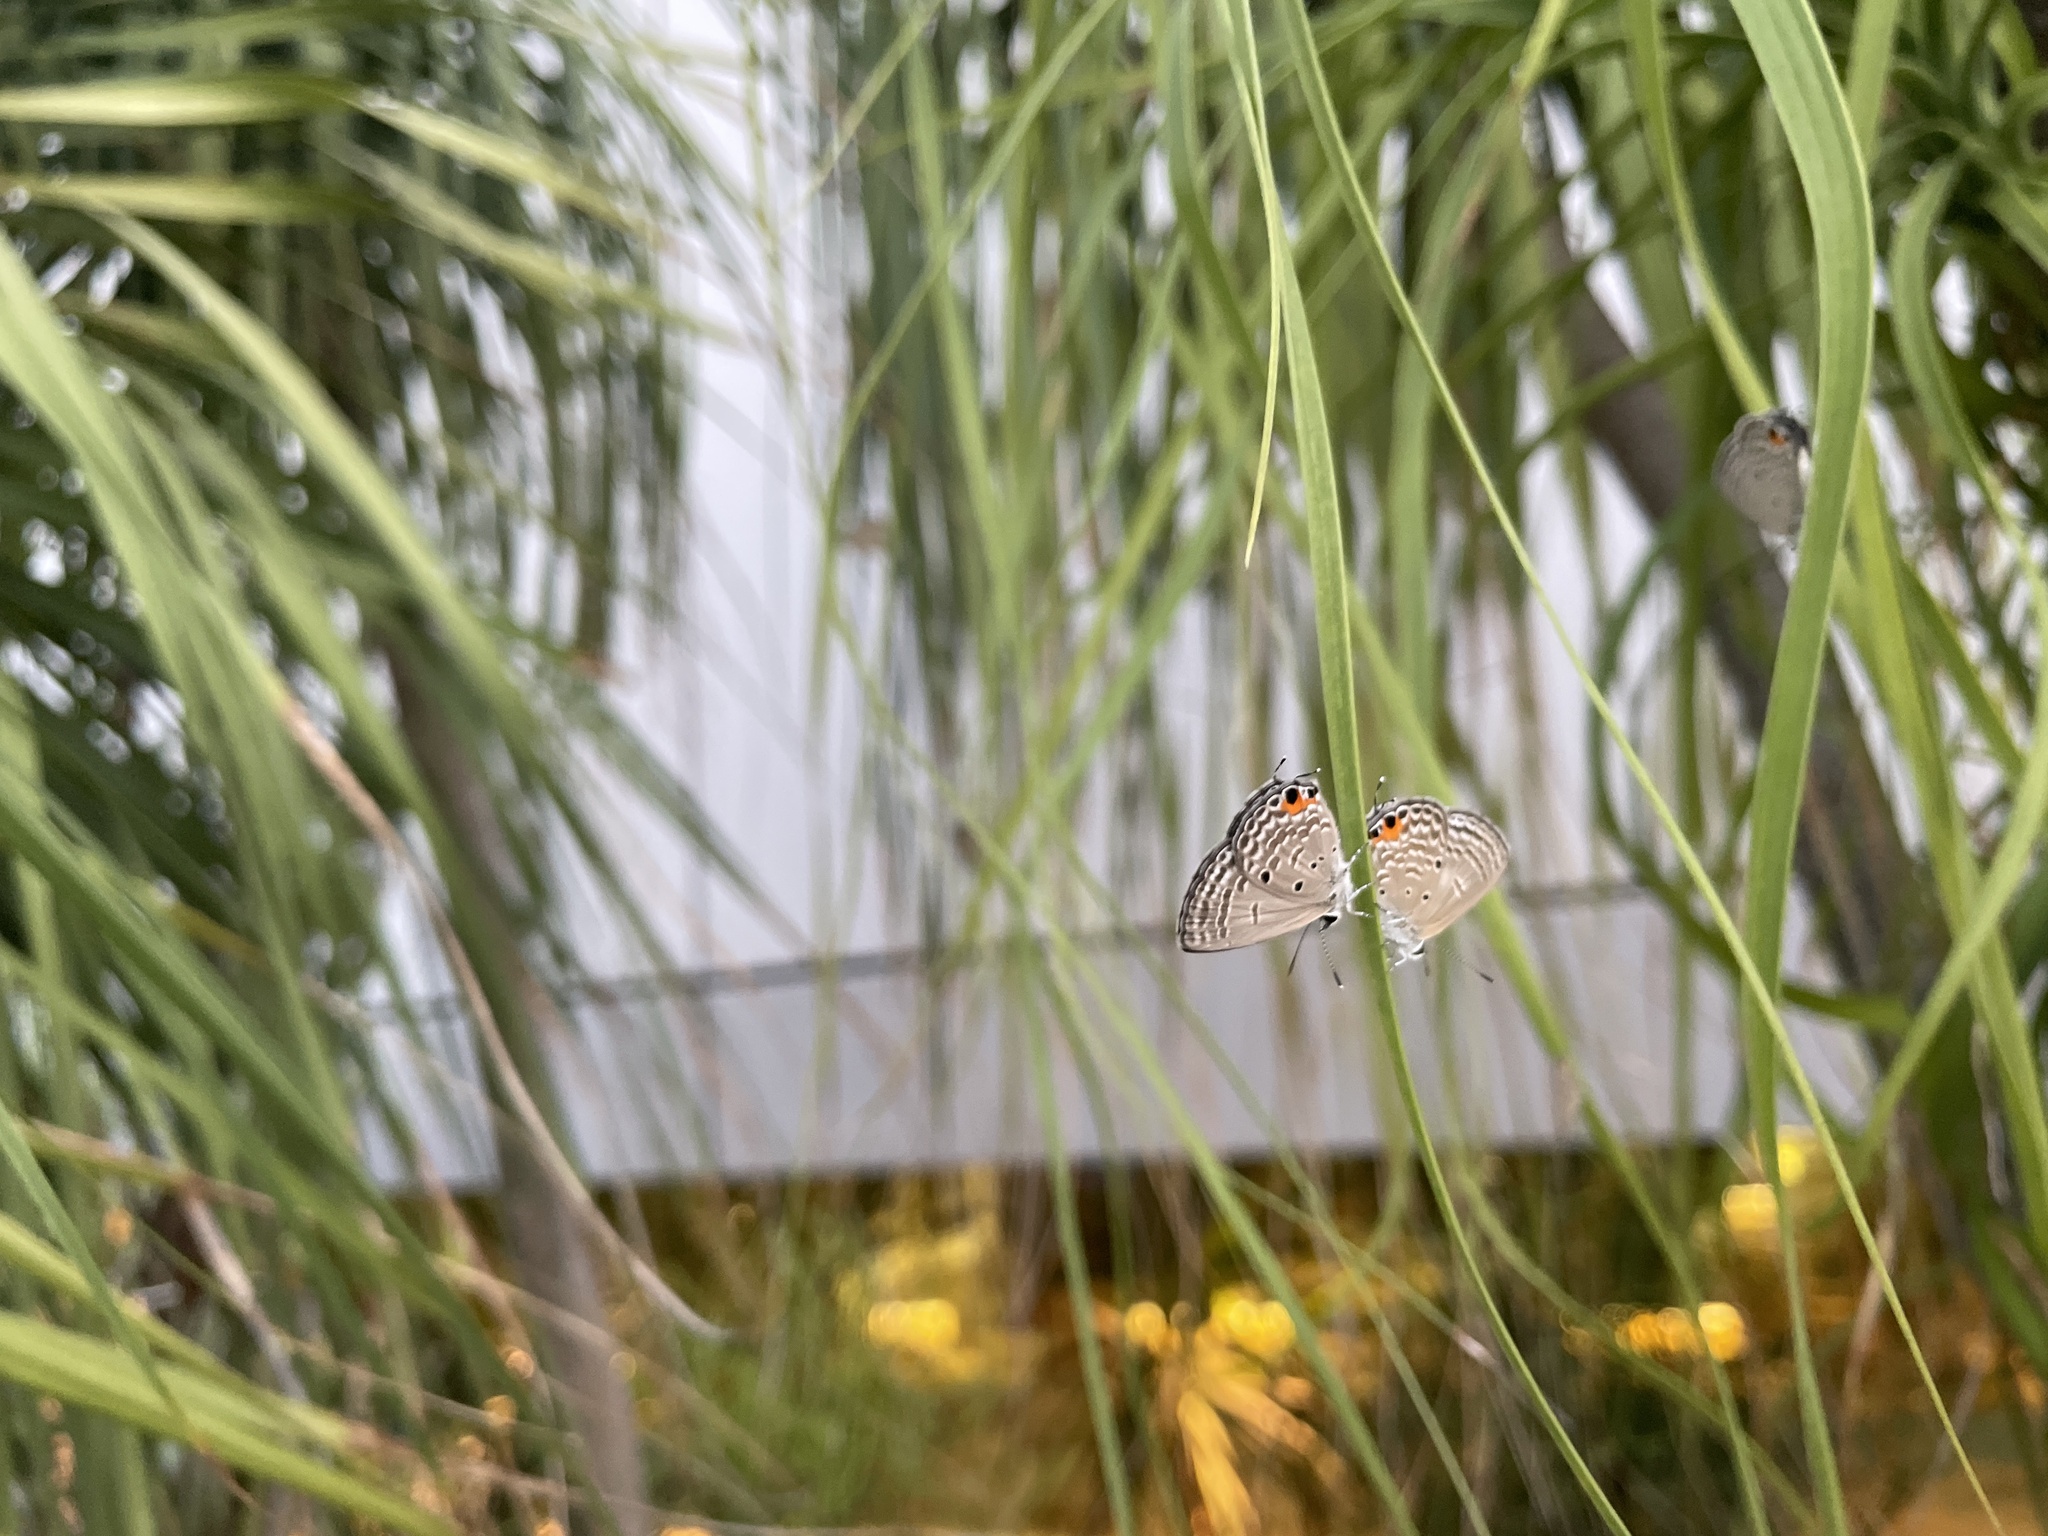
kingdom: Animalia
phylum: Arthropoda
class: Insecta
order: Lepidoptera
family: Lycaenidae
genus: Luthrodes
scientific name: Luthrodes pandava
